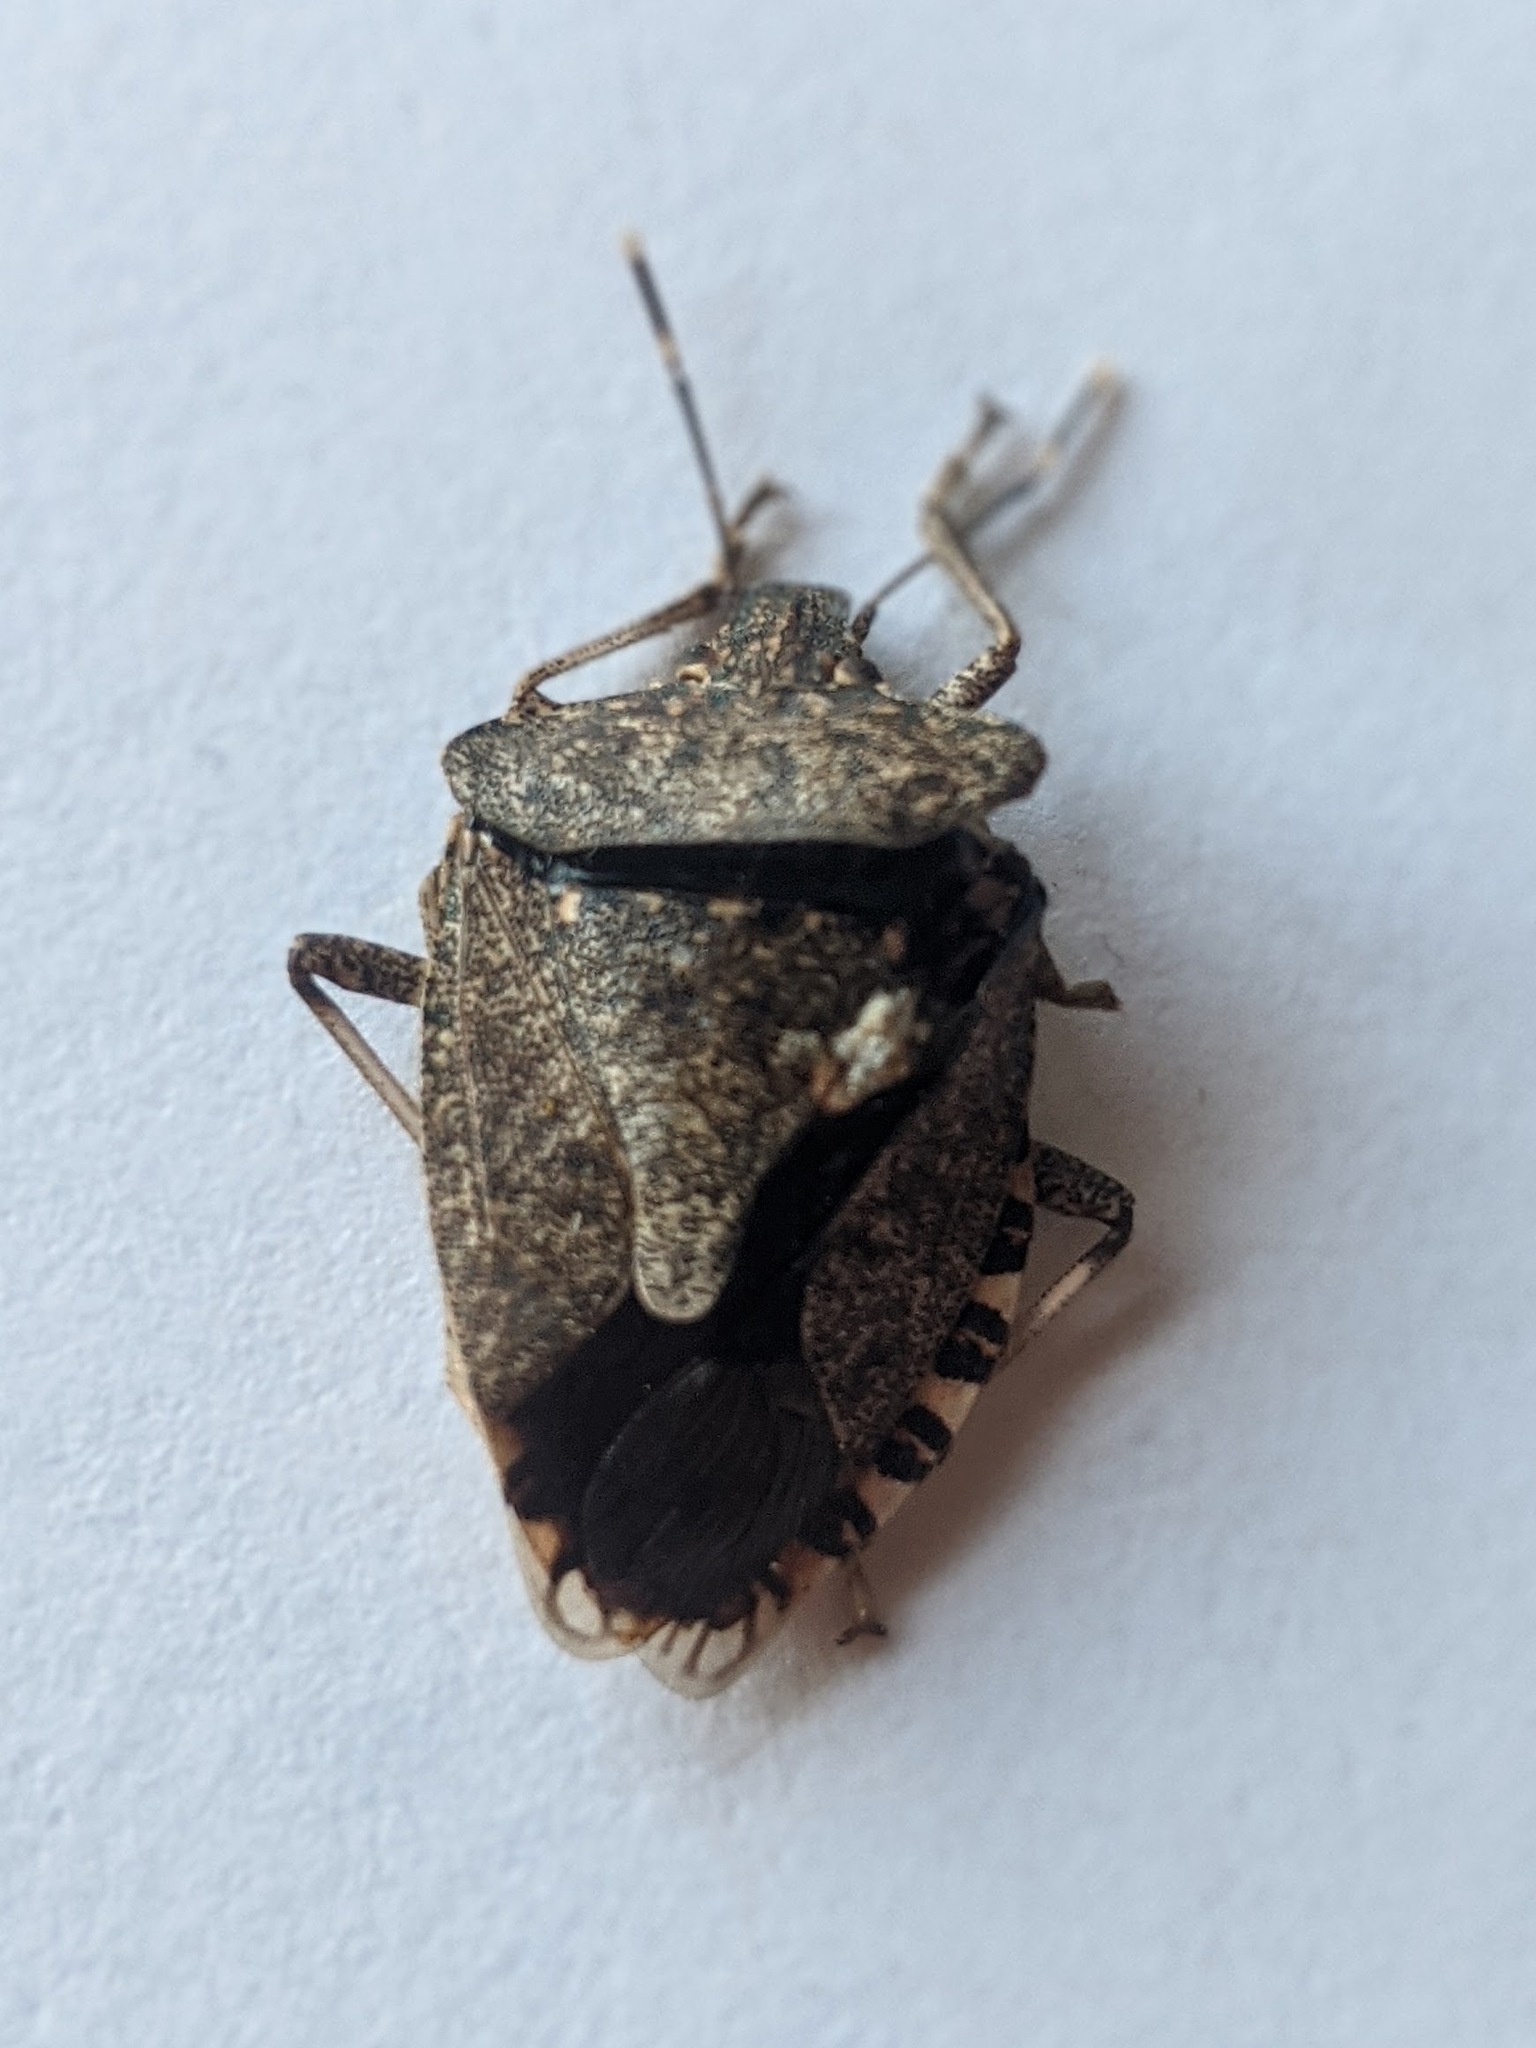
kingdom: Animalia
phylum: Arthropoda
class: Insecta
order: Hemiptera
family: Pentatomidae
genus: Halyomorpha
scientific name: Halyomorpha halys
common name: Brown marmorated stink bug
